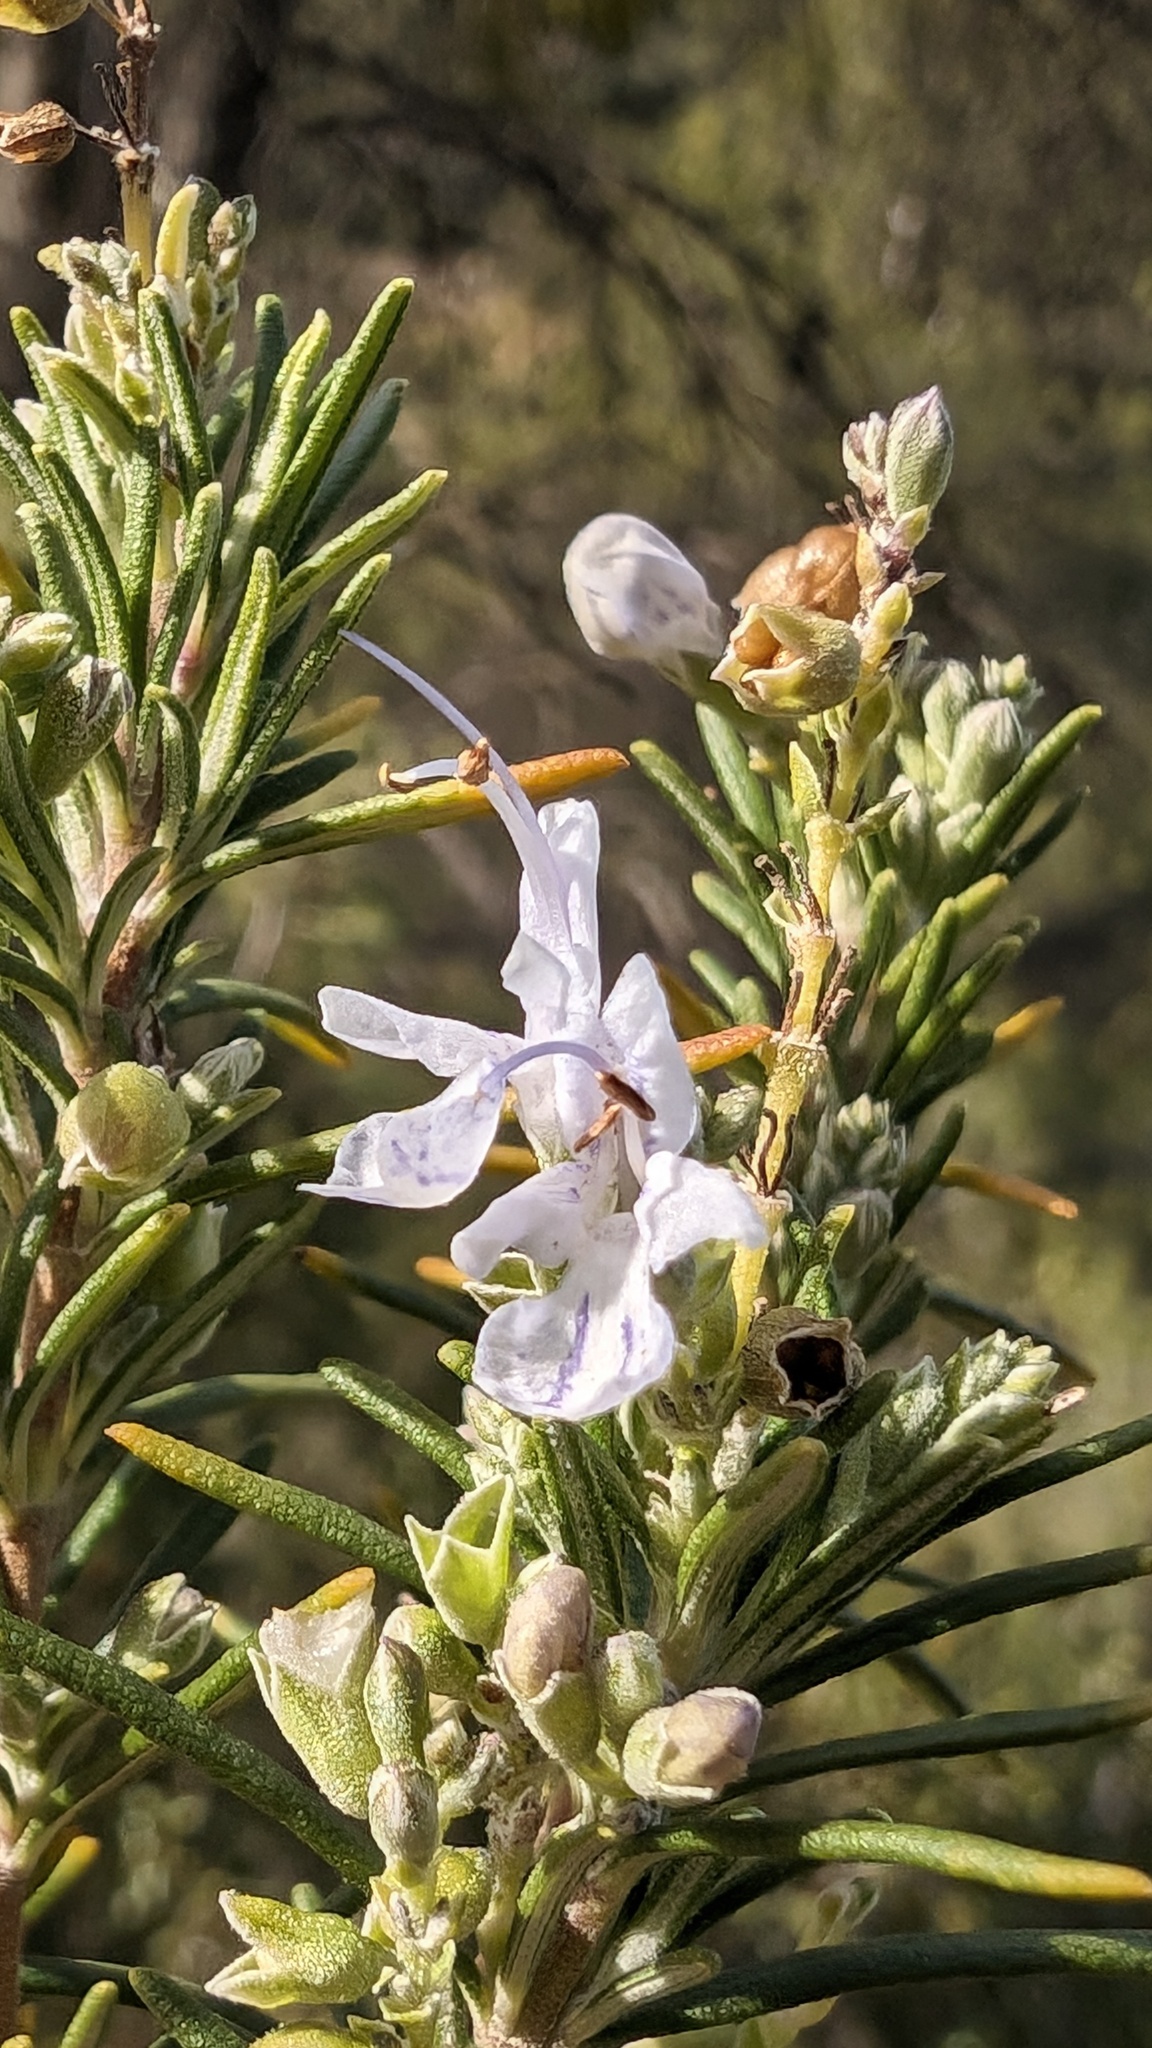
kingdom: Plantae
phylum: Tracheophyta
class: Magnoliopsida
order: Lamiales
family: Lamiaceae
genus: Salvia
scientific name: Salvia rosmarinus
